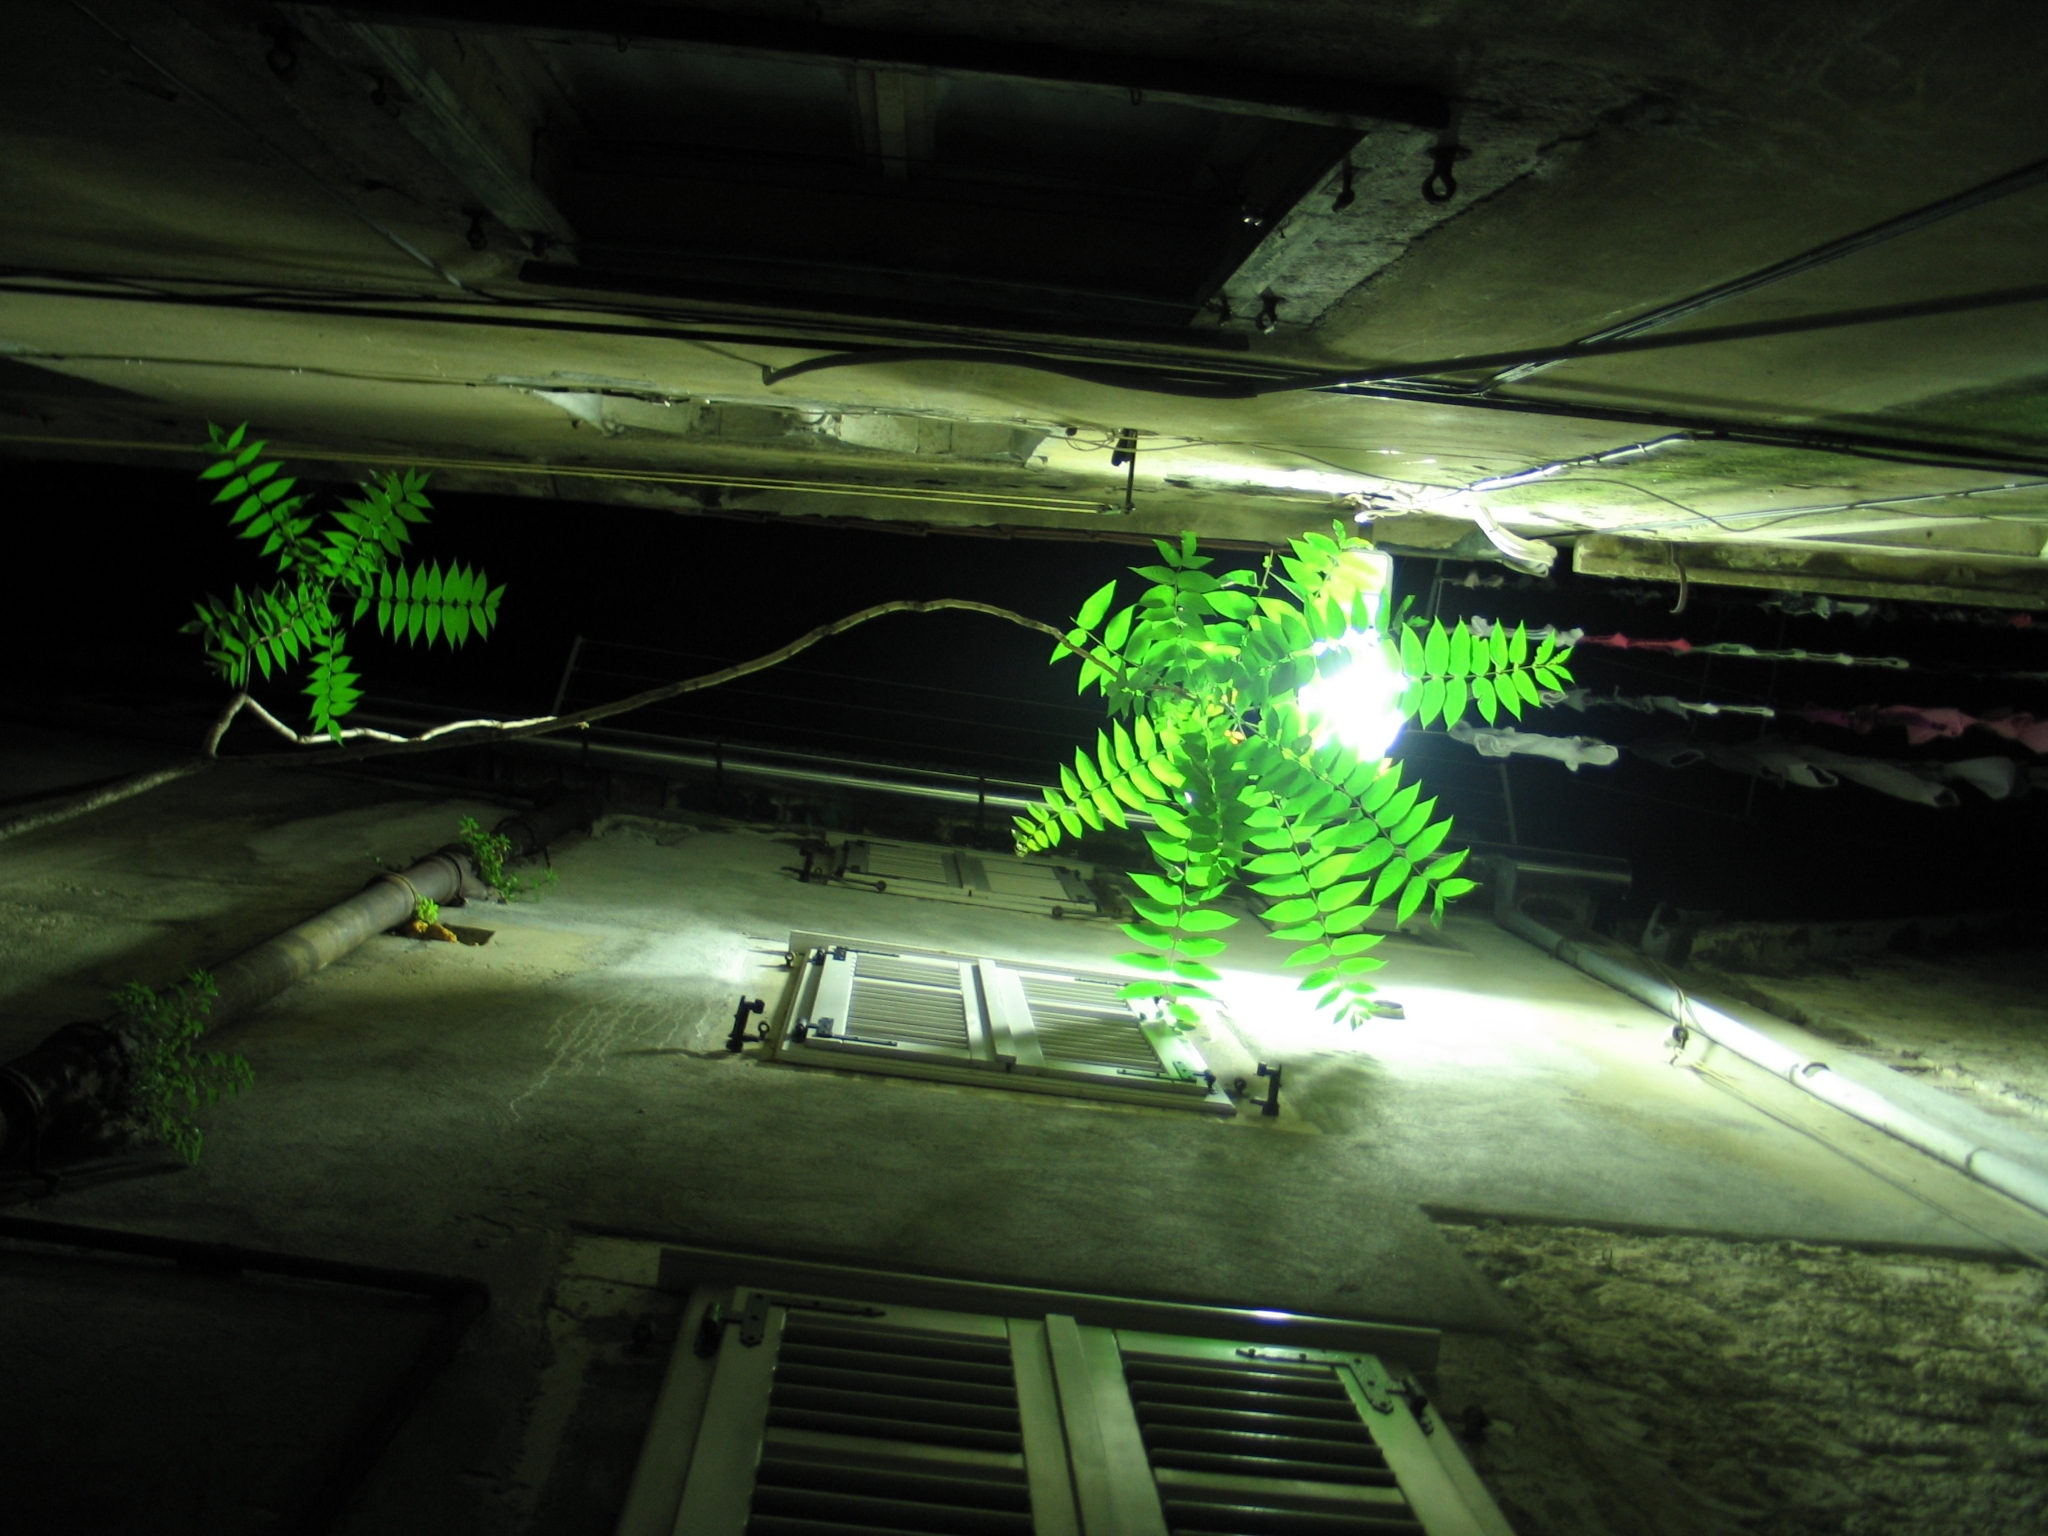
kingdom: Plantae
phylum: Tracheophyta
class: Magnoliopsida
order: Sapindales
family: Simaroubaceae
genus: Ailanthus
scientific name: Ailanthus altissima
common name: Tree-of-heaven
